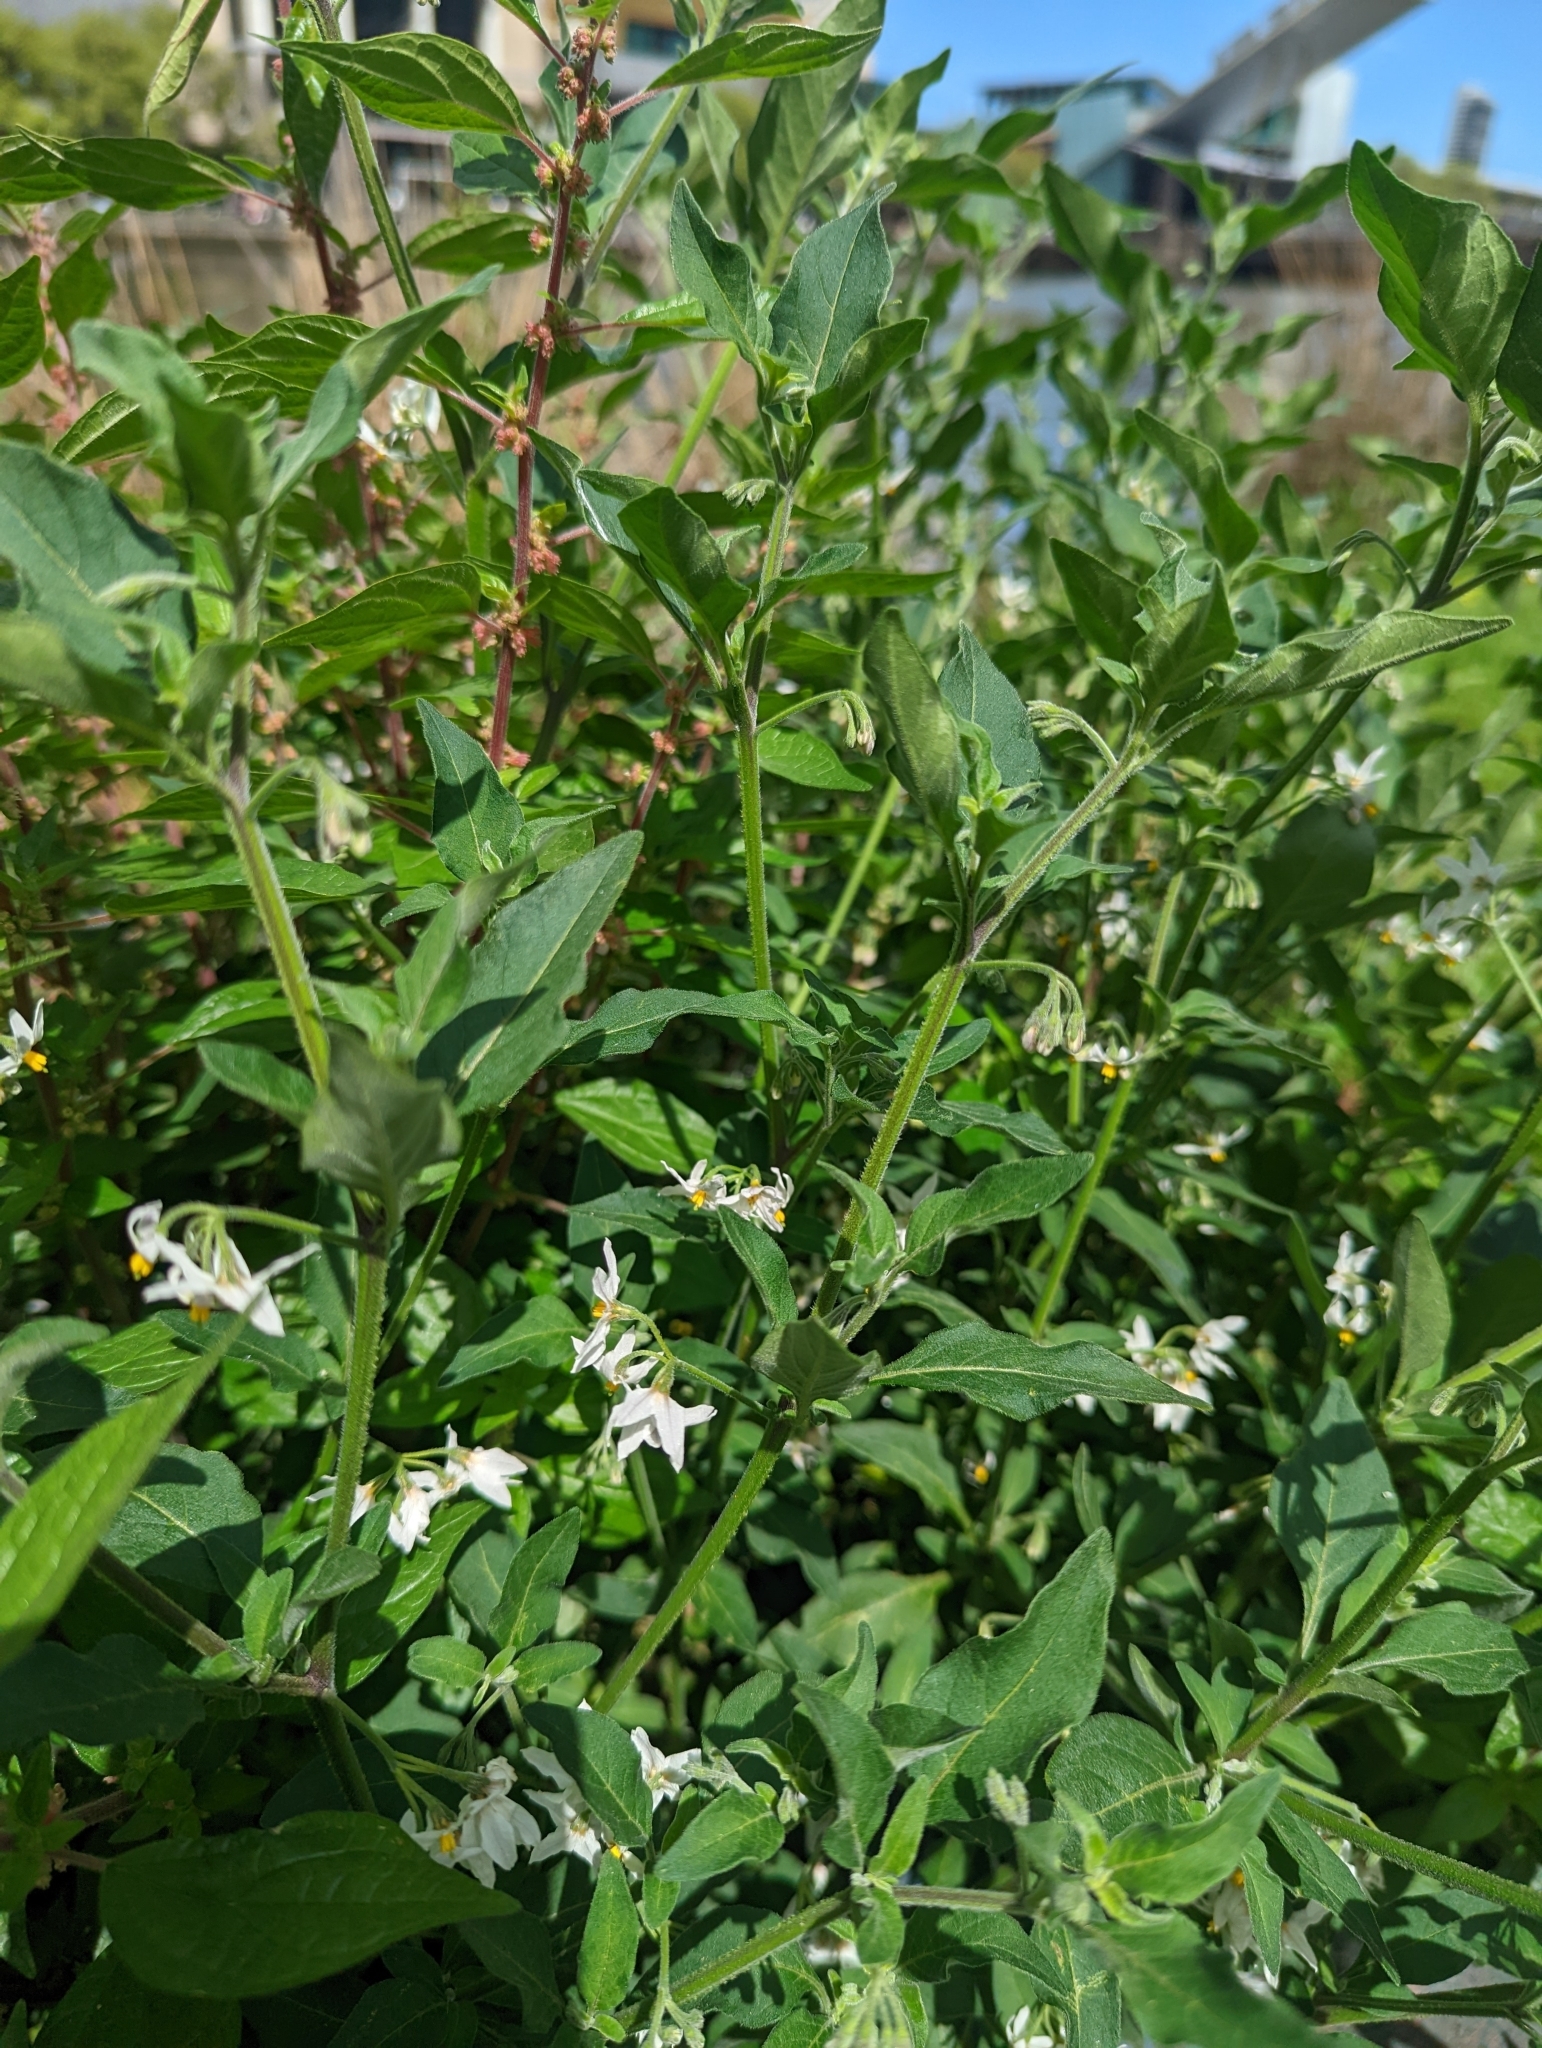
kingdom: Plantae
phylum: Tracheophyta
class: Magnoliopsida
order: Solanales
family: Solanaceae
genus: Solanum
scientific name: Solanum chenopodioides
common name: Tall nightshade
